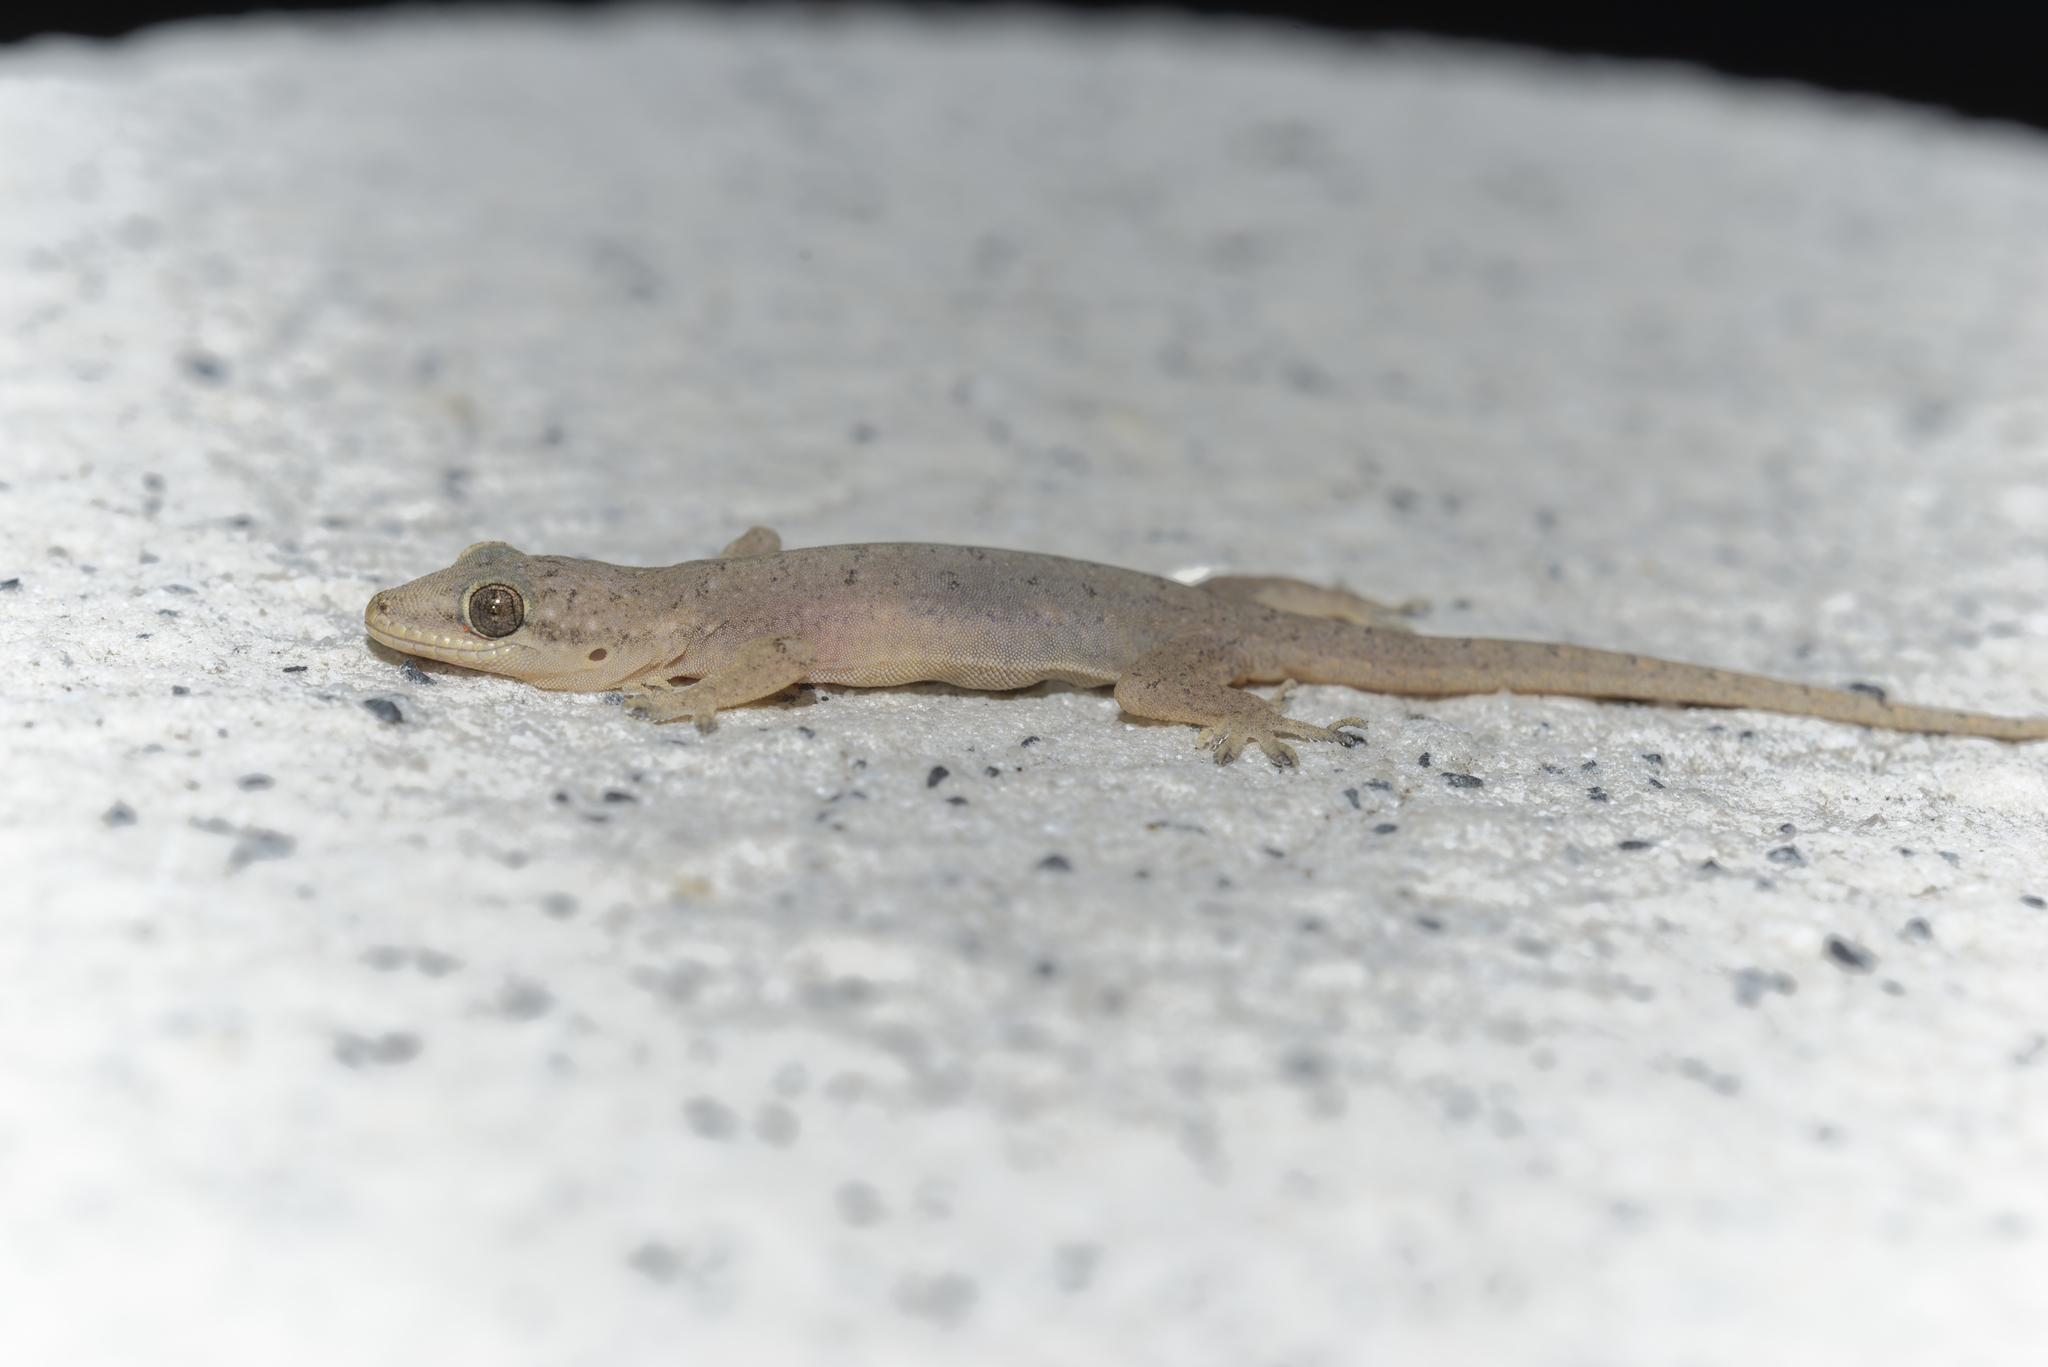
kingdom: Animalia
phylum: Chordata
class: Squamata
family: Gekkonidae
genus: Hemidactylus
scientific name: Hemidactylus bowringii
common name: Oriental leaf-toed gecko
